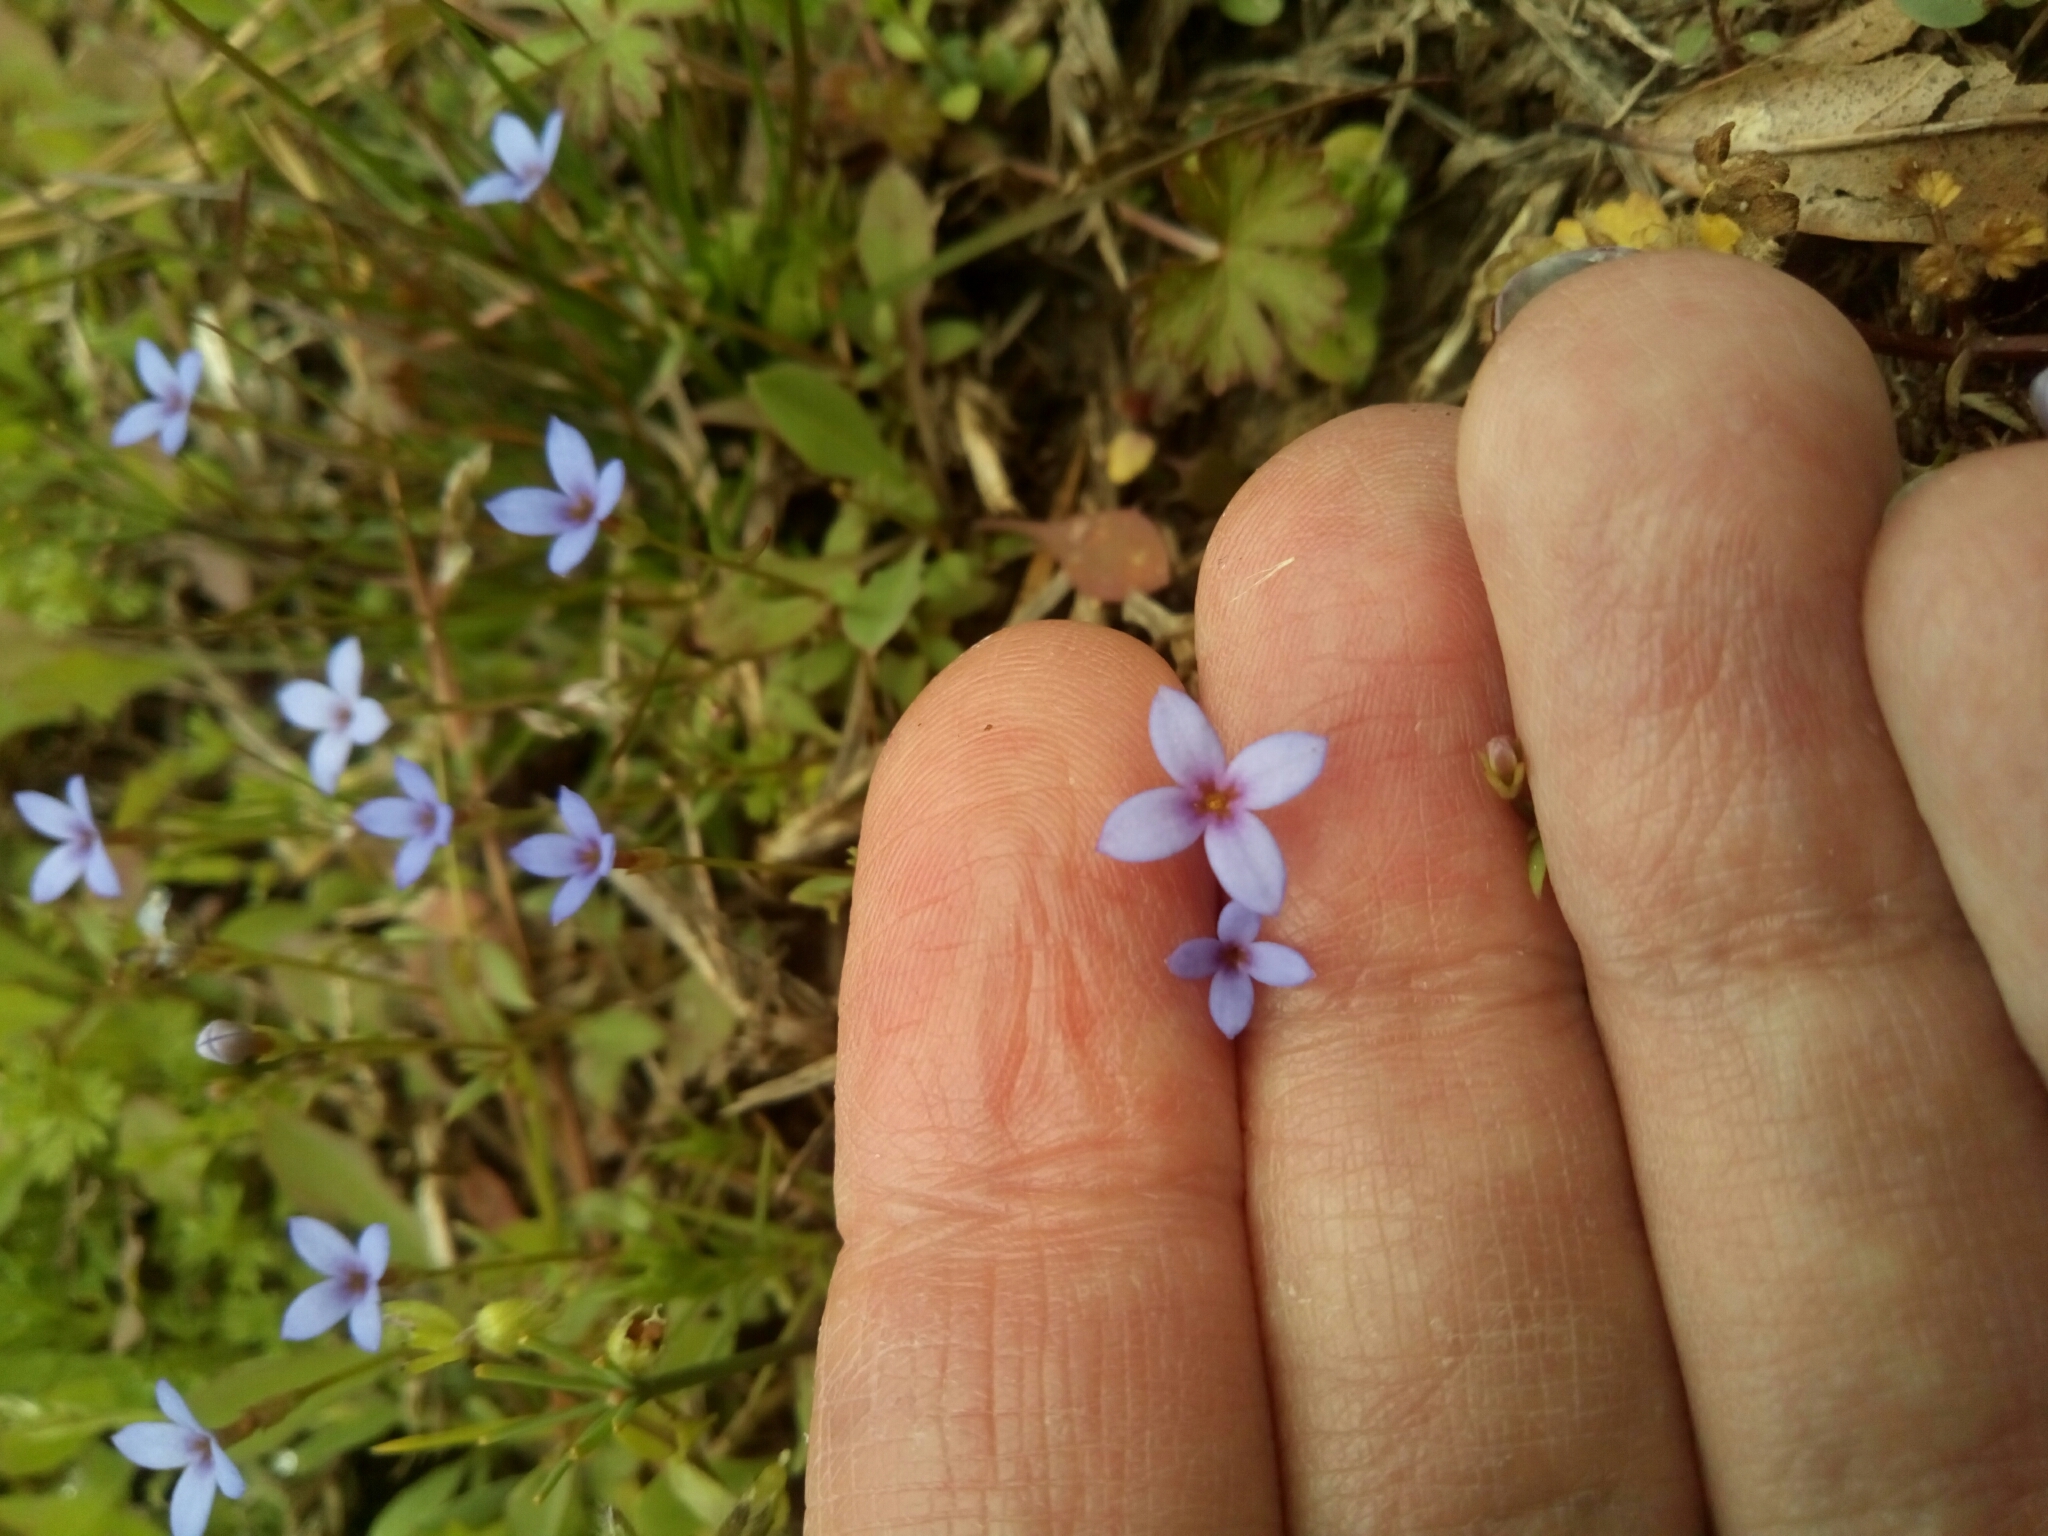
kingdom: Plantae
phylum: Tracheophyta
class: Magnoliopsida
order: Gentianales
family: Rubiaceae
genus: Houstonia
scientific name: Houstonia pusilla
